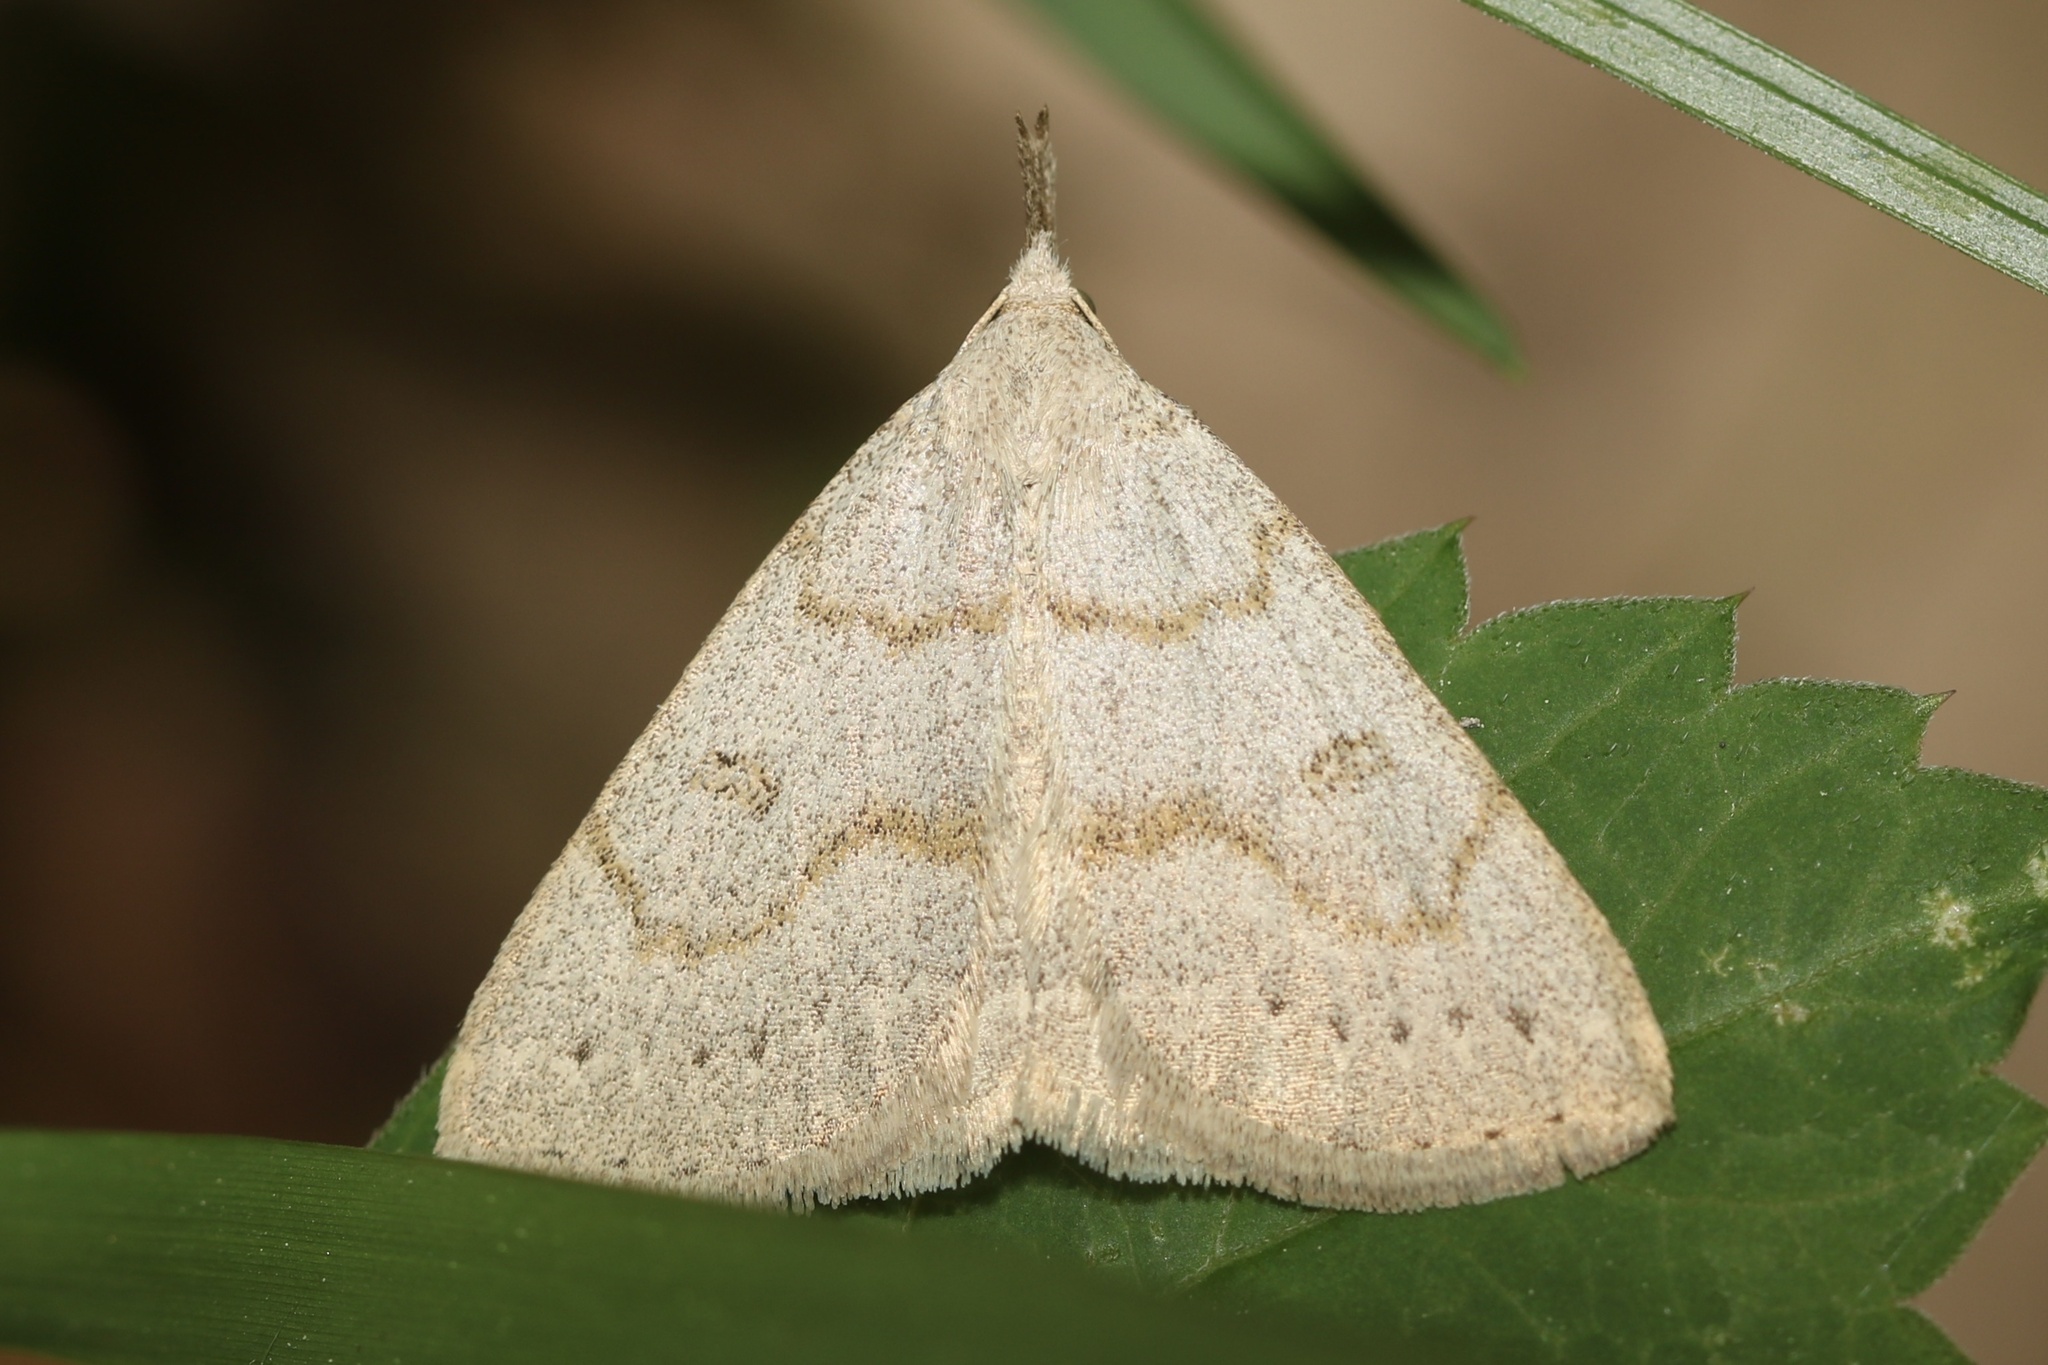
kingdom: Animalia
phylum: Arthropoda
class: Insecta
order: Lepidoptera
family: Erebidae
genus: Macrochilo
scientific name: Macrochilo morbidalis
